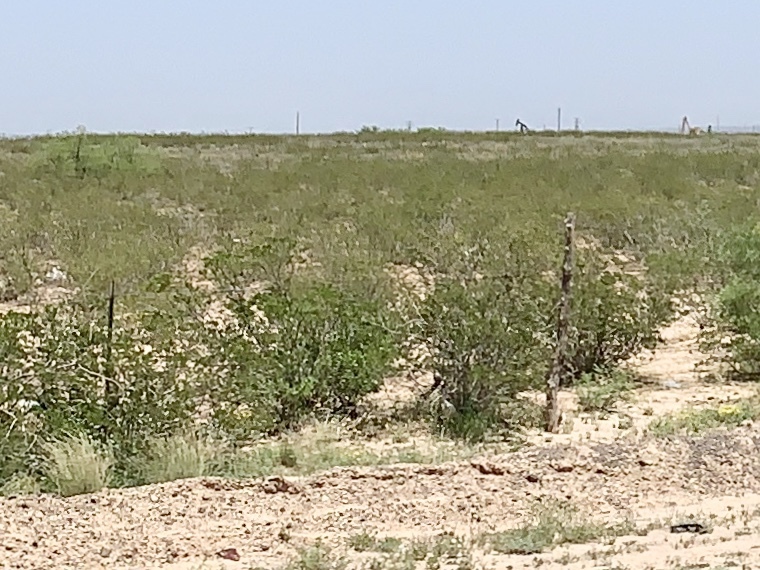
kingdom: Plantae
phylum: Tracheophyta
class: Magnoliopsida
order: Zygophyllales
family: Zygophyllaceae
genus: Larrea
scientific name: Larrea tridentata
